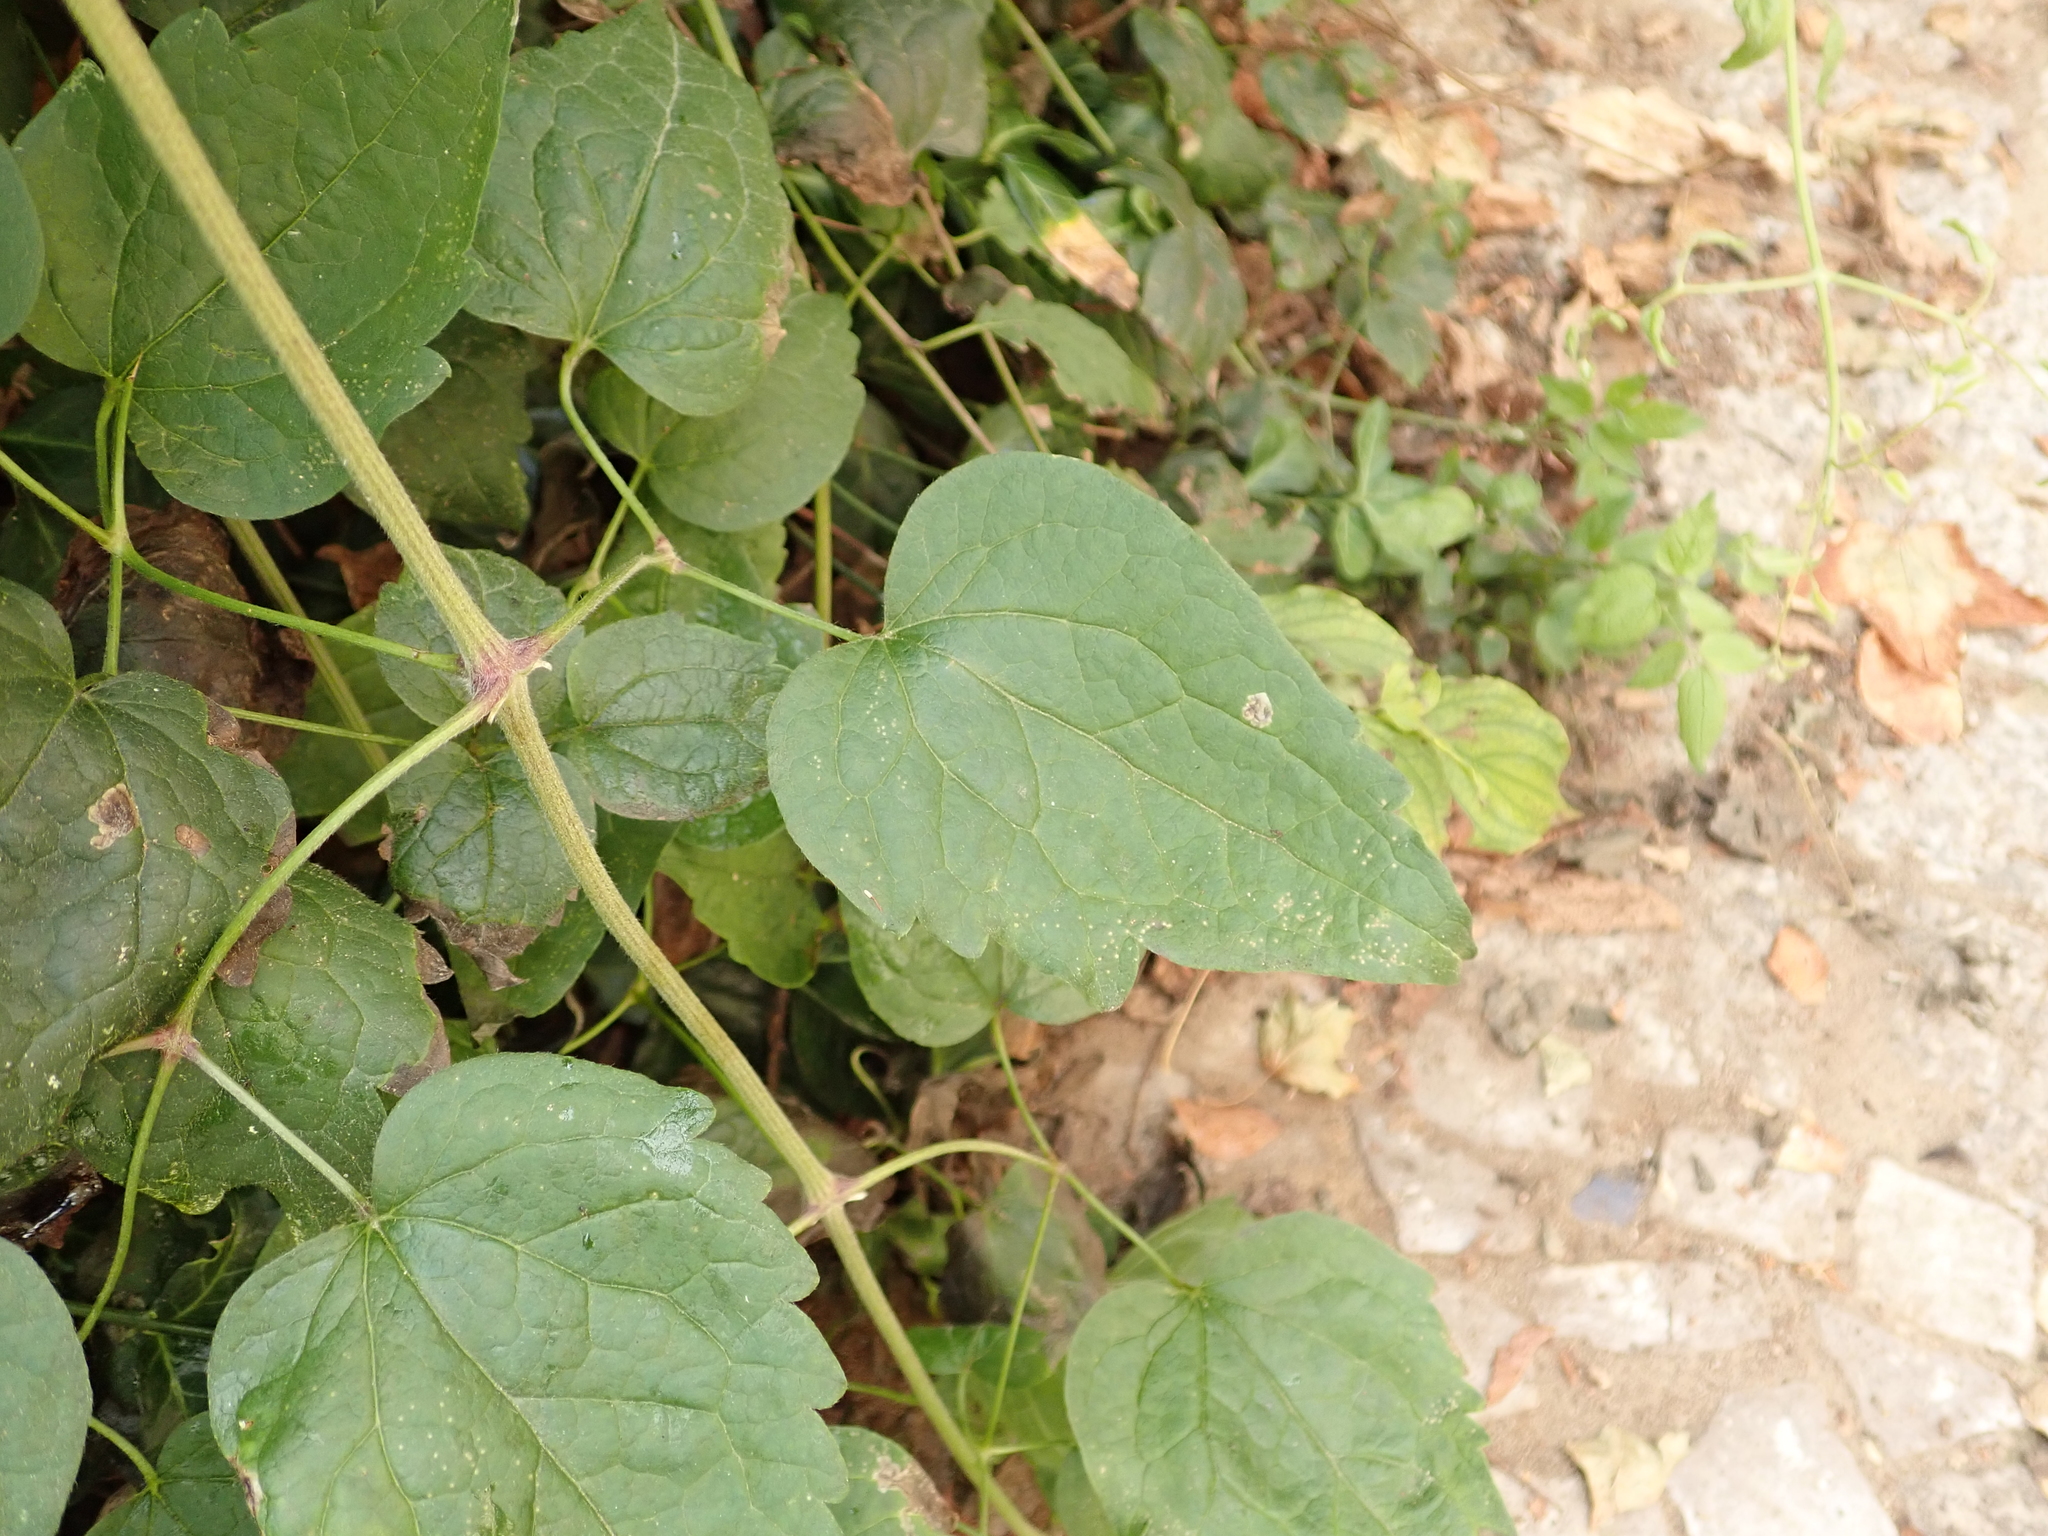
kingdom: Plantae
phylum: Tracheophyta
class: Magnoliopsida
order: Ranunculales
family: Ranunculaceae
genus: Clematis
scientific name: Clematis vitalba
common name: Evergreen clematis
